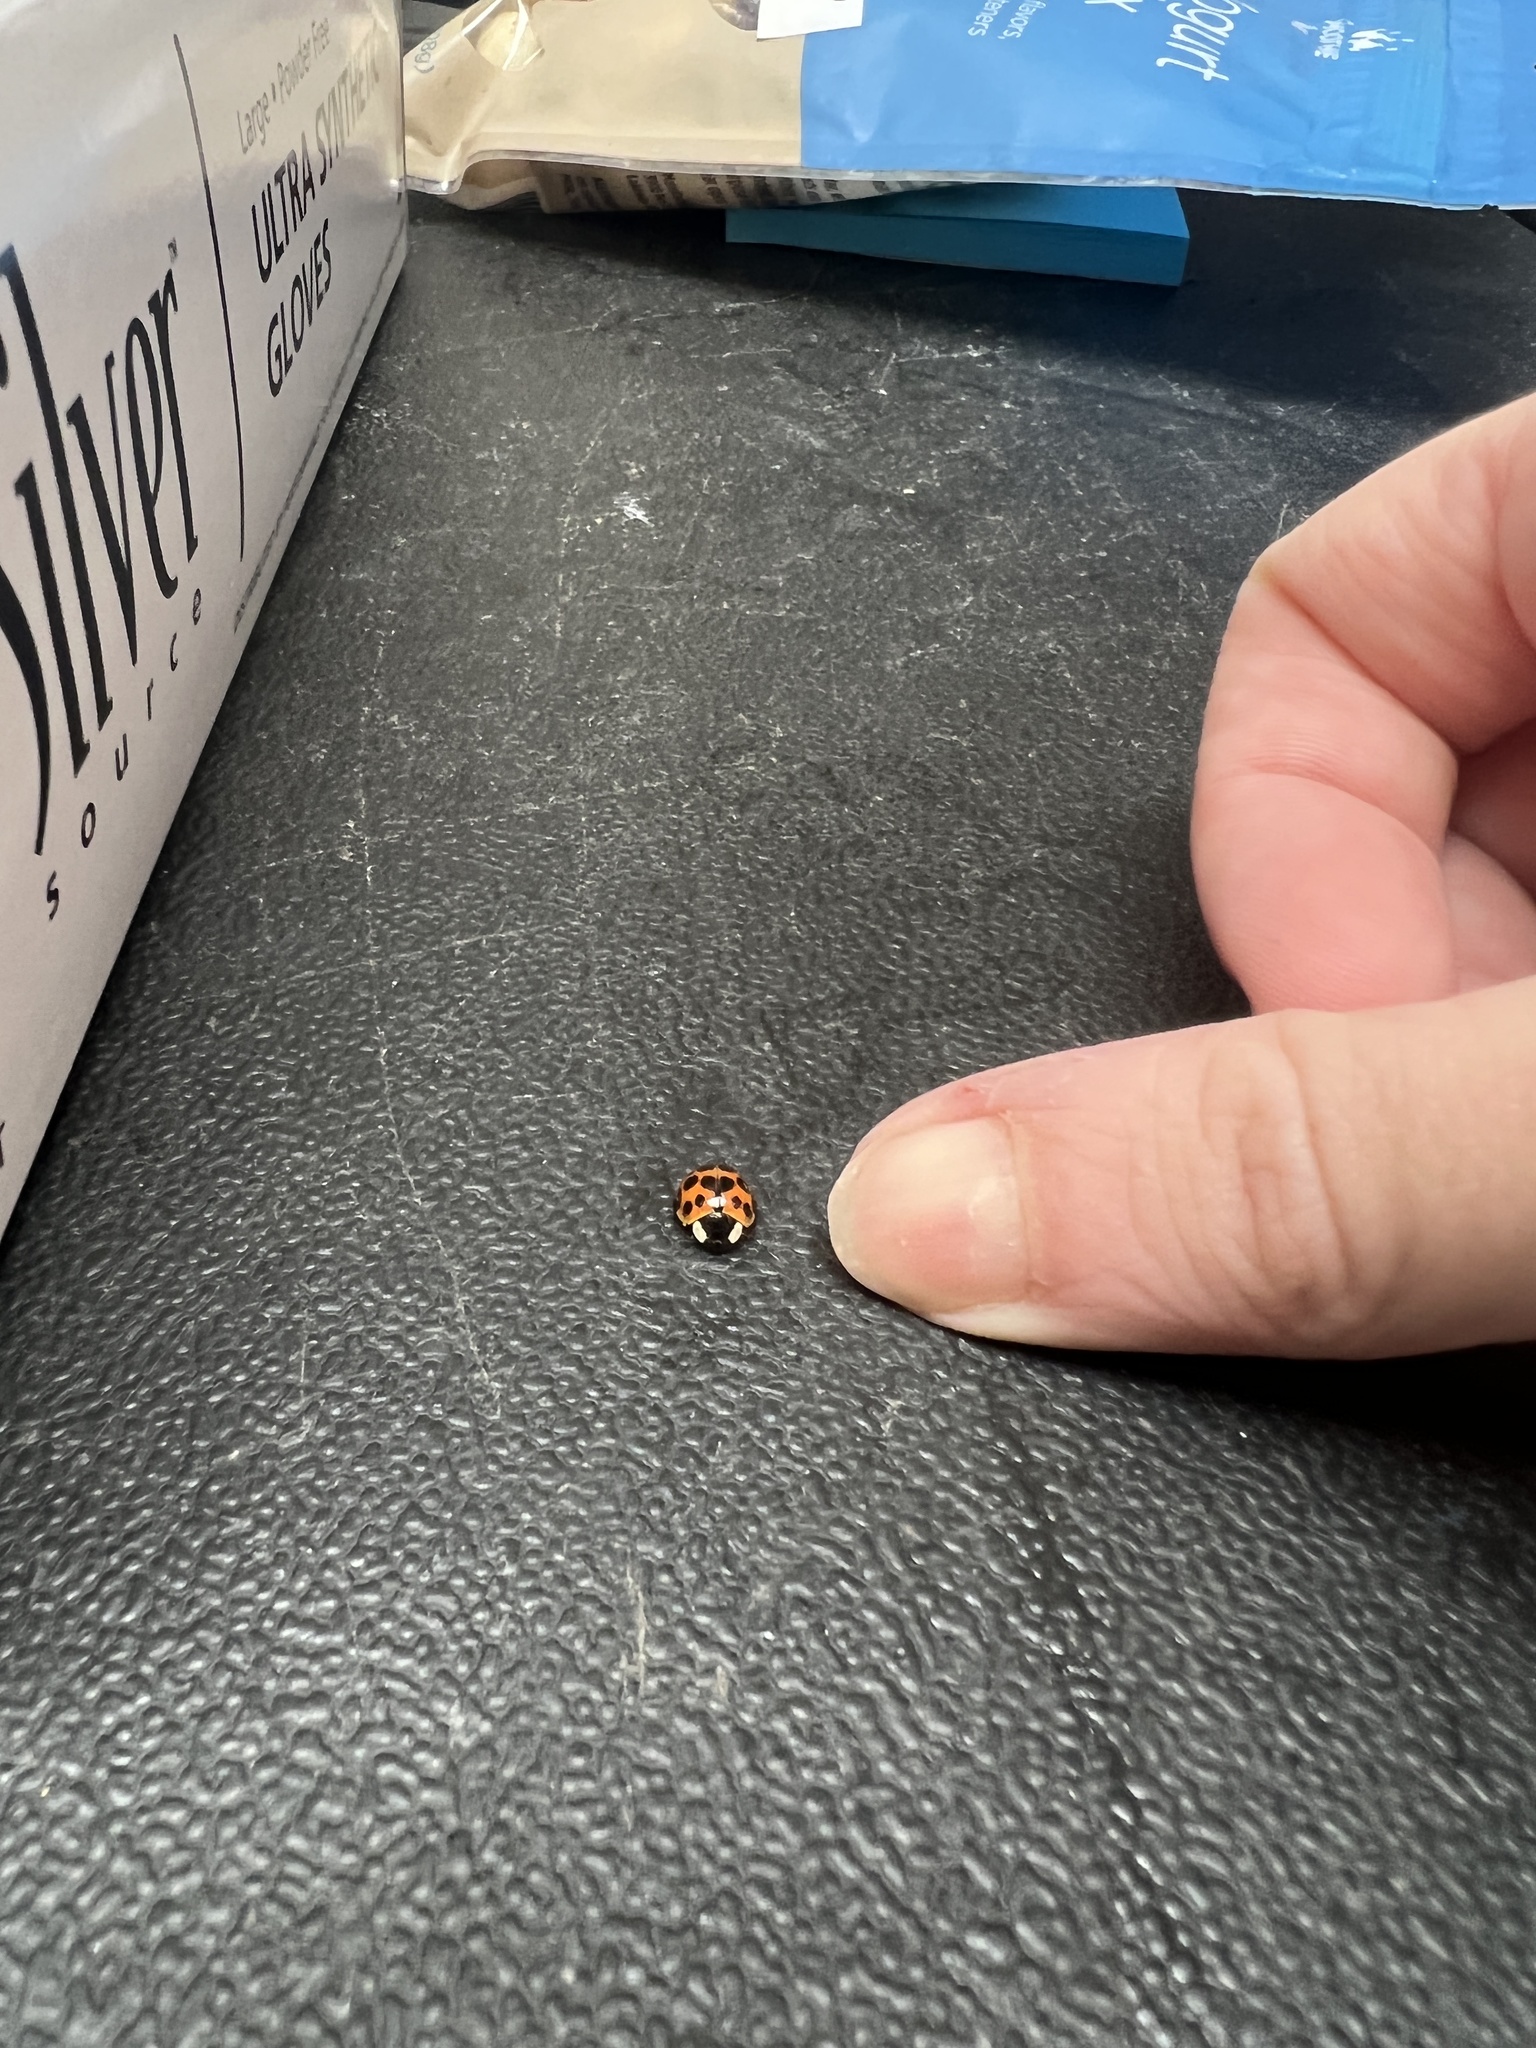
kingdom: Animalia
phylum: Arthropoda
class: Insecta
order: Coleoptera
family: Coccinellidae
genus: Harmonia
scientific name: Harmonia axyridis
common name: Harlequin ladybird
